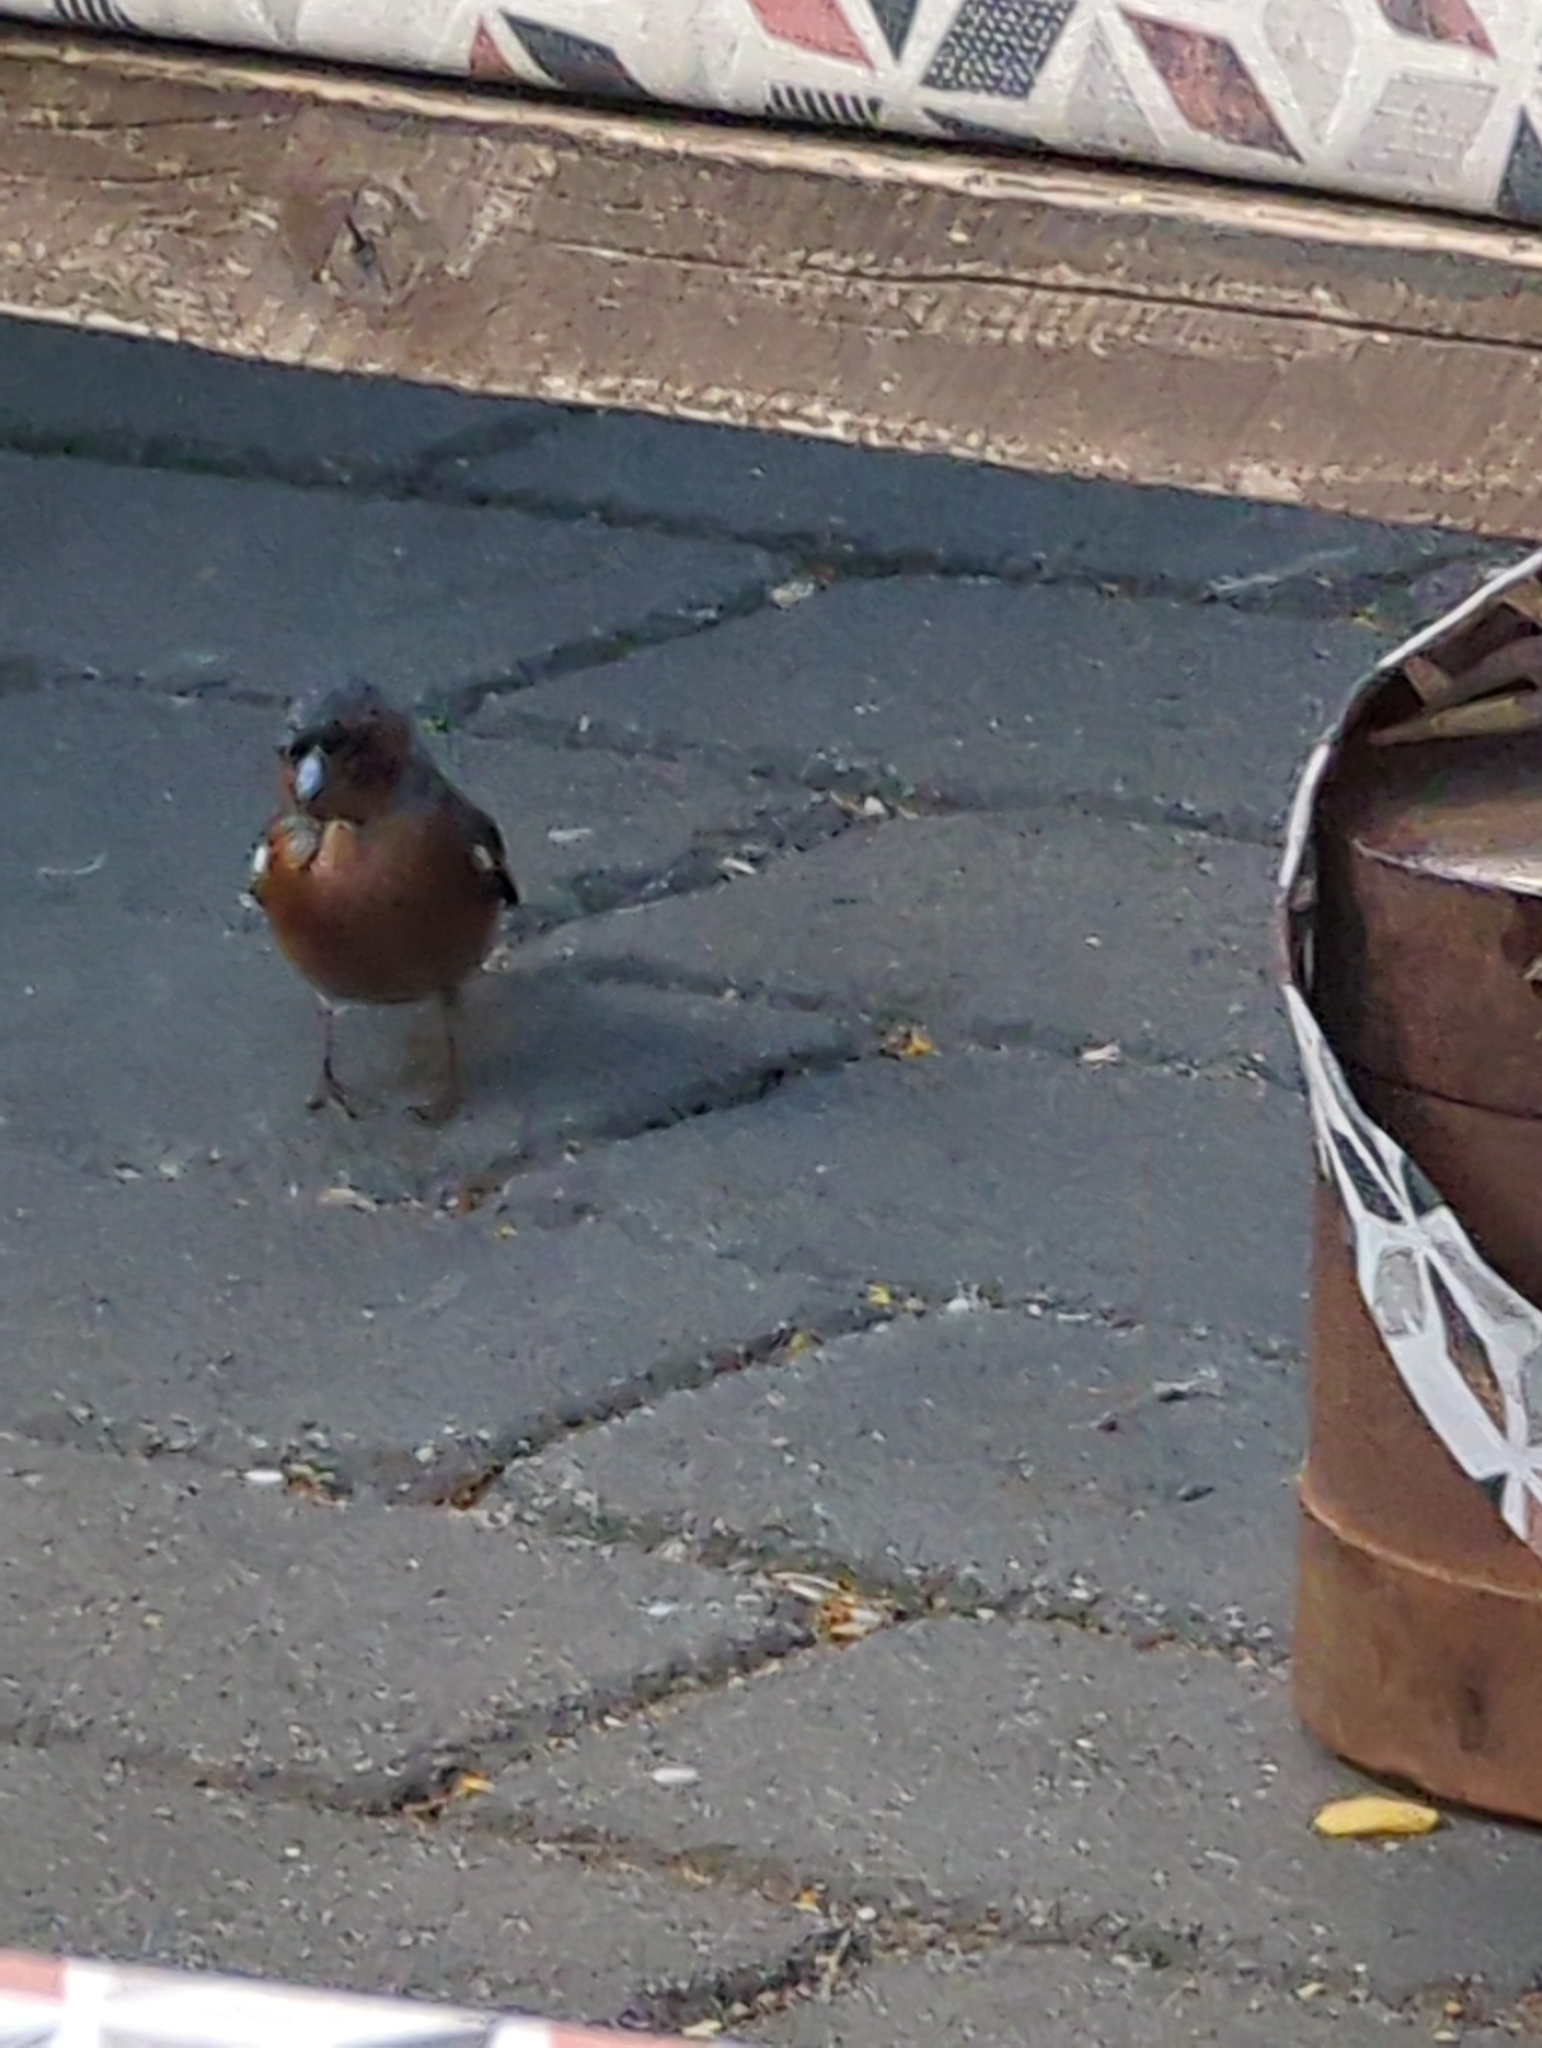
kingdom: Animalia
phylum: Chordata
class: Aves
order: Passeriformes
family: Fringillidae
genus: Fringilla
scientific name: Fringilla coelebs
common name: Common chaffinch
